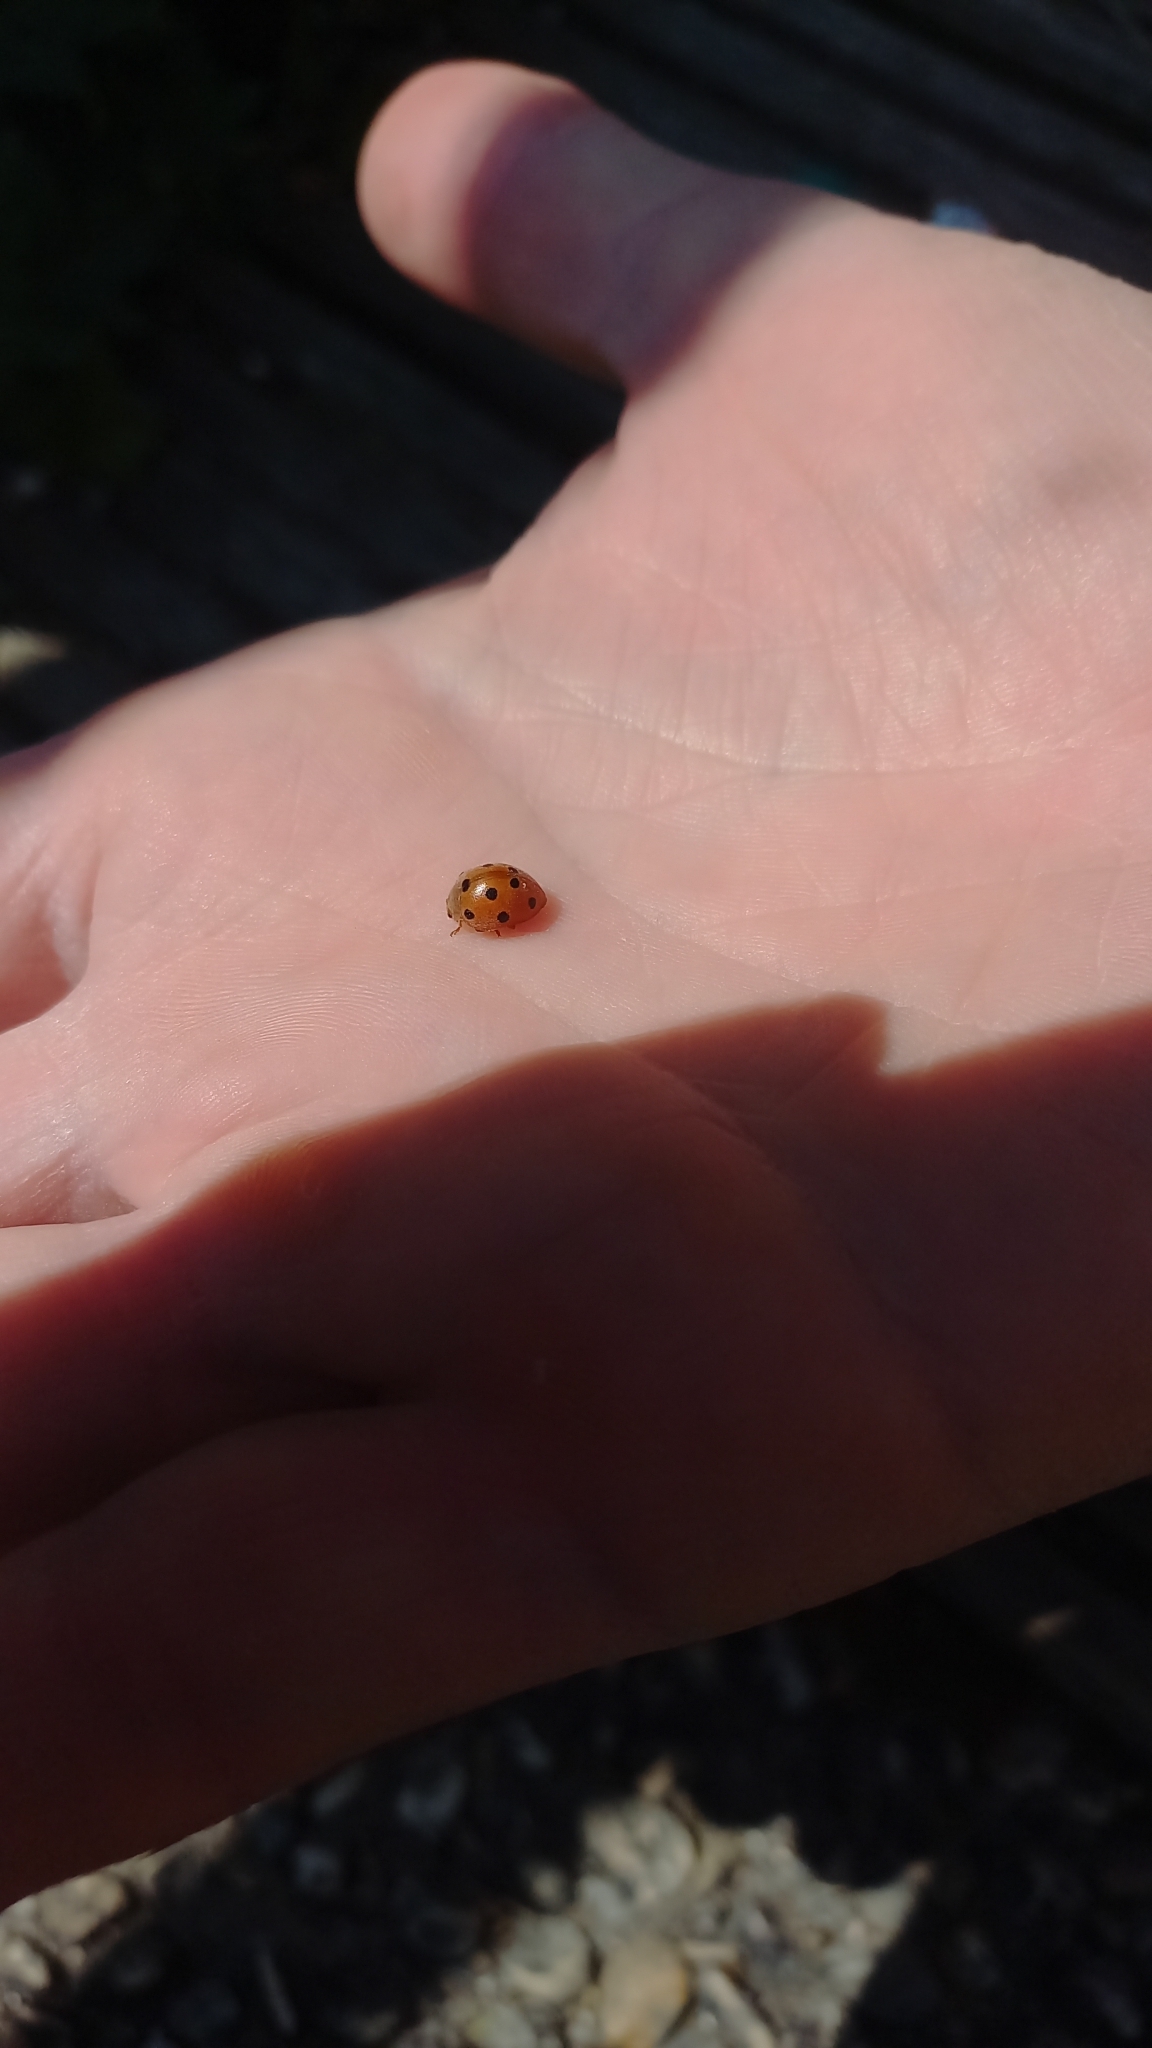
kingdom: Animalia
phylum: Arthropoda
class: Insecta
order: Coleoptera
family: Coccinellidae
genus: Henosepilachna
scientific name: Henosepilachna argus
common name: Bryony ladybird
